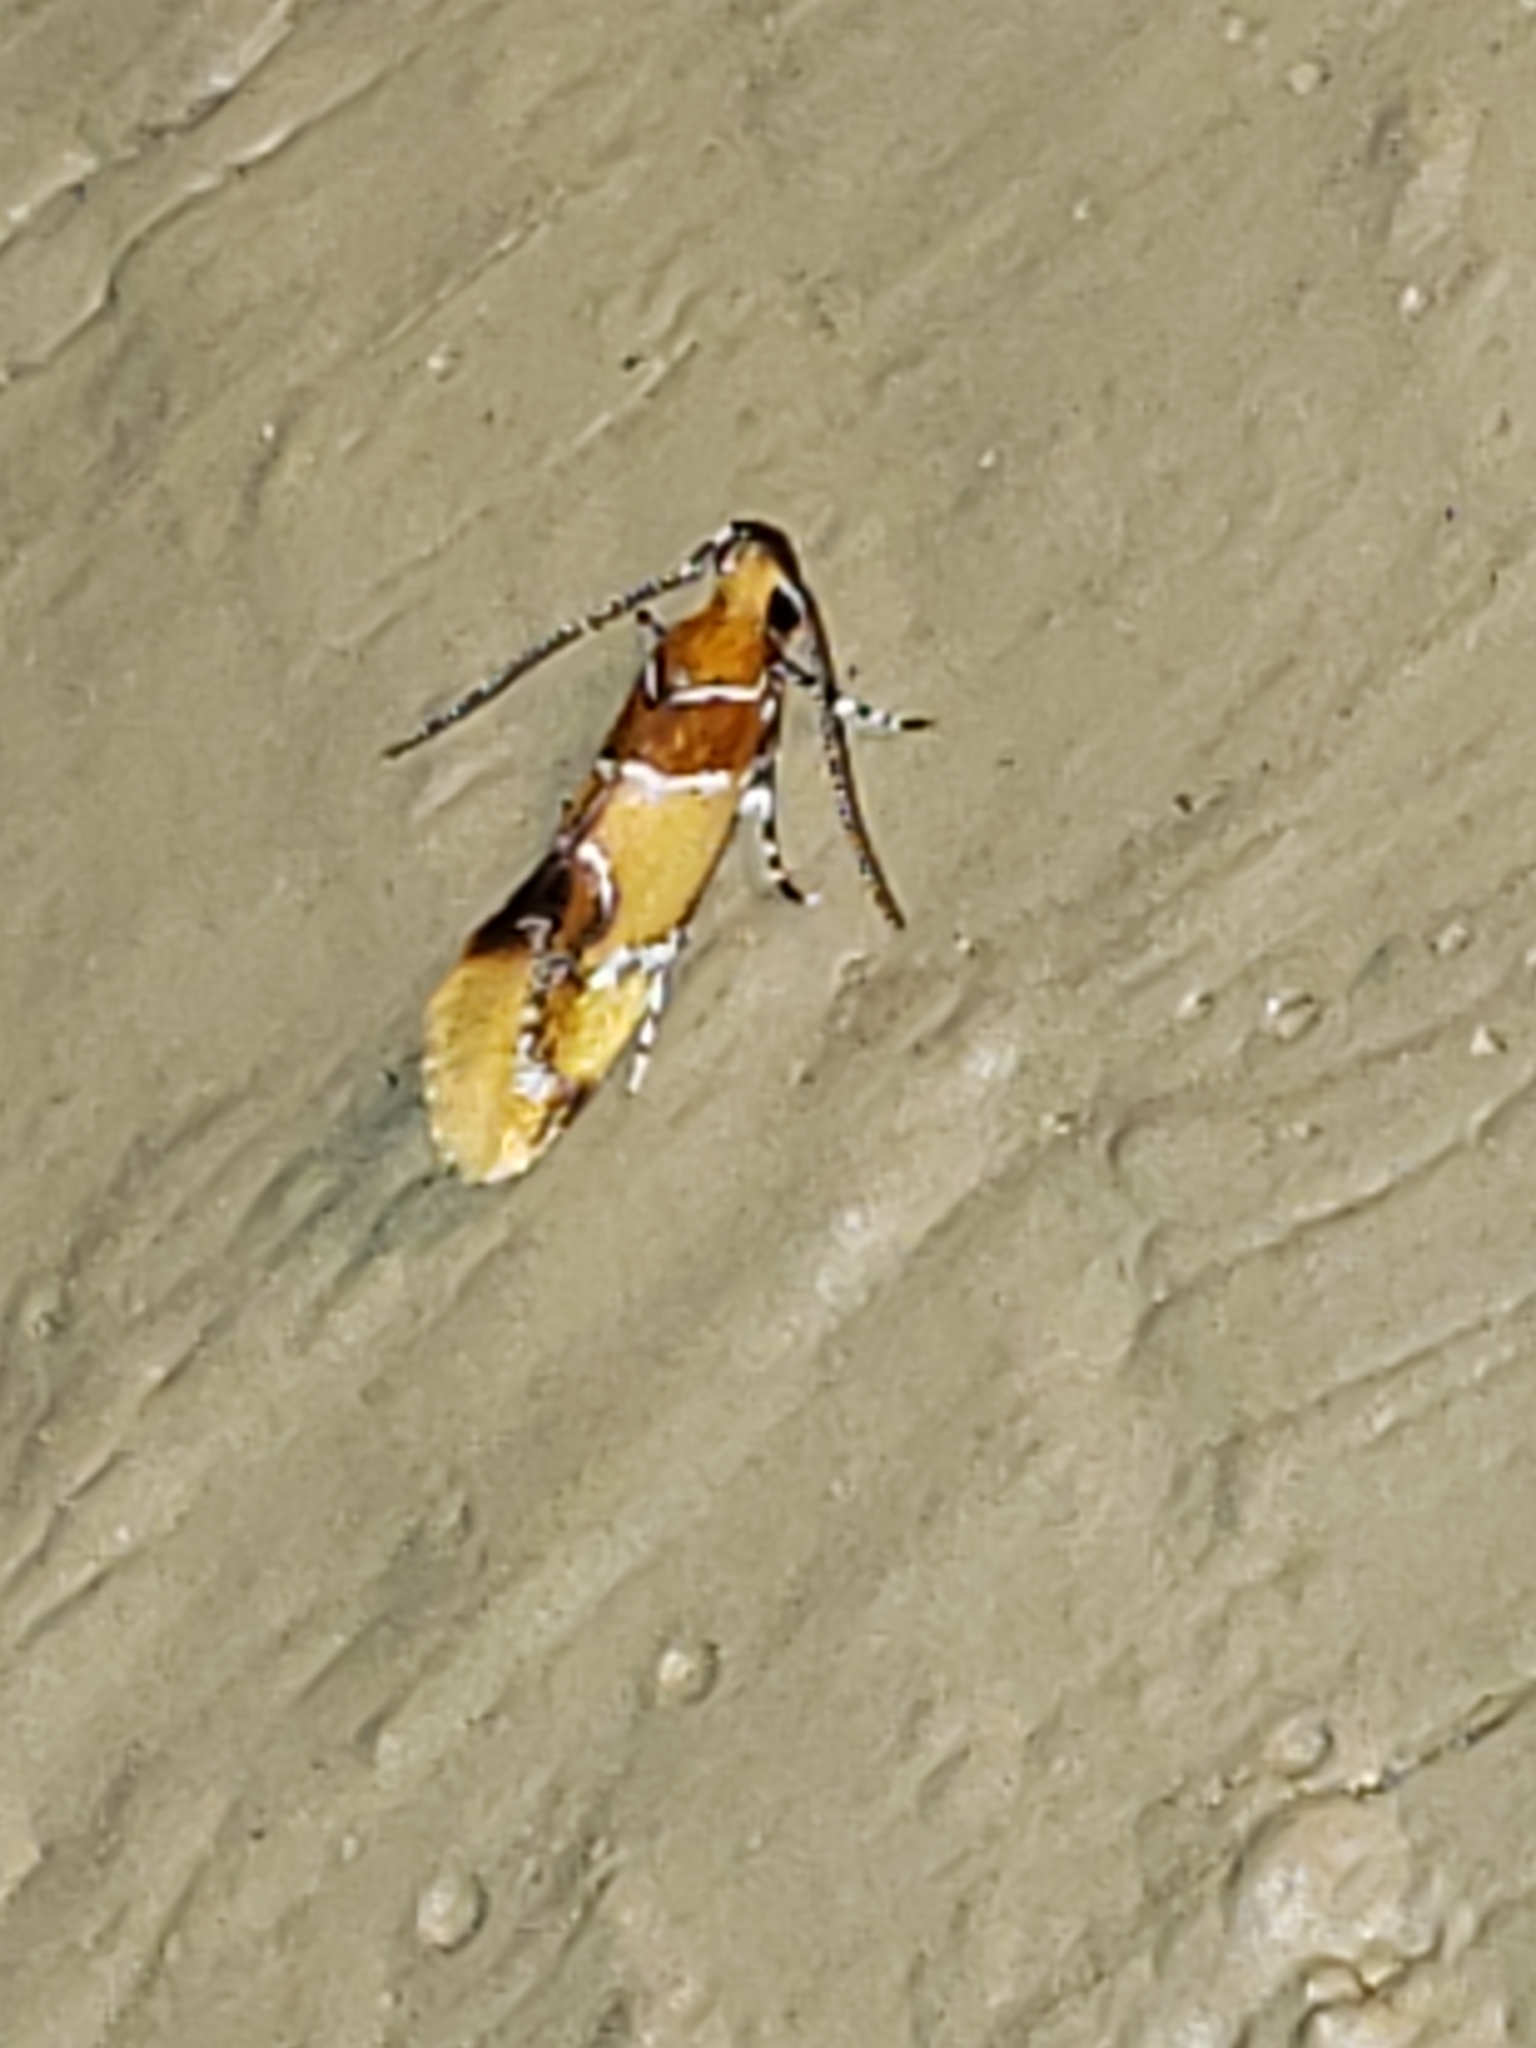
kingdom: Animalia
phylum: Arthropoda
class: Insecta
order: Lepidoptera
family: Oecophoridae
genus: Callima
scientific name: Callima argenticinctella
